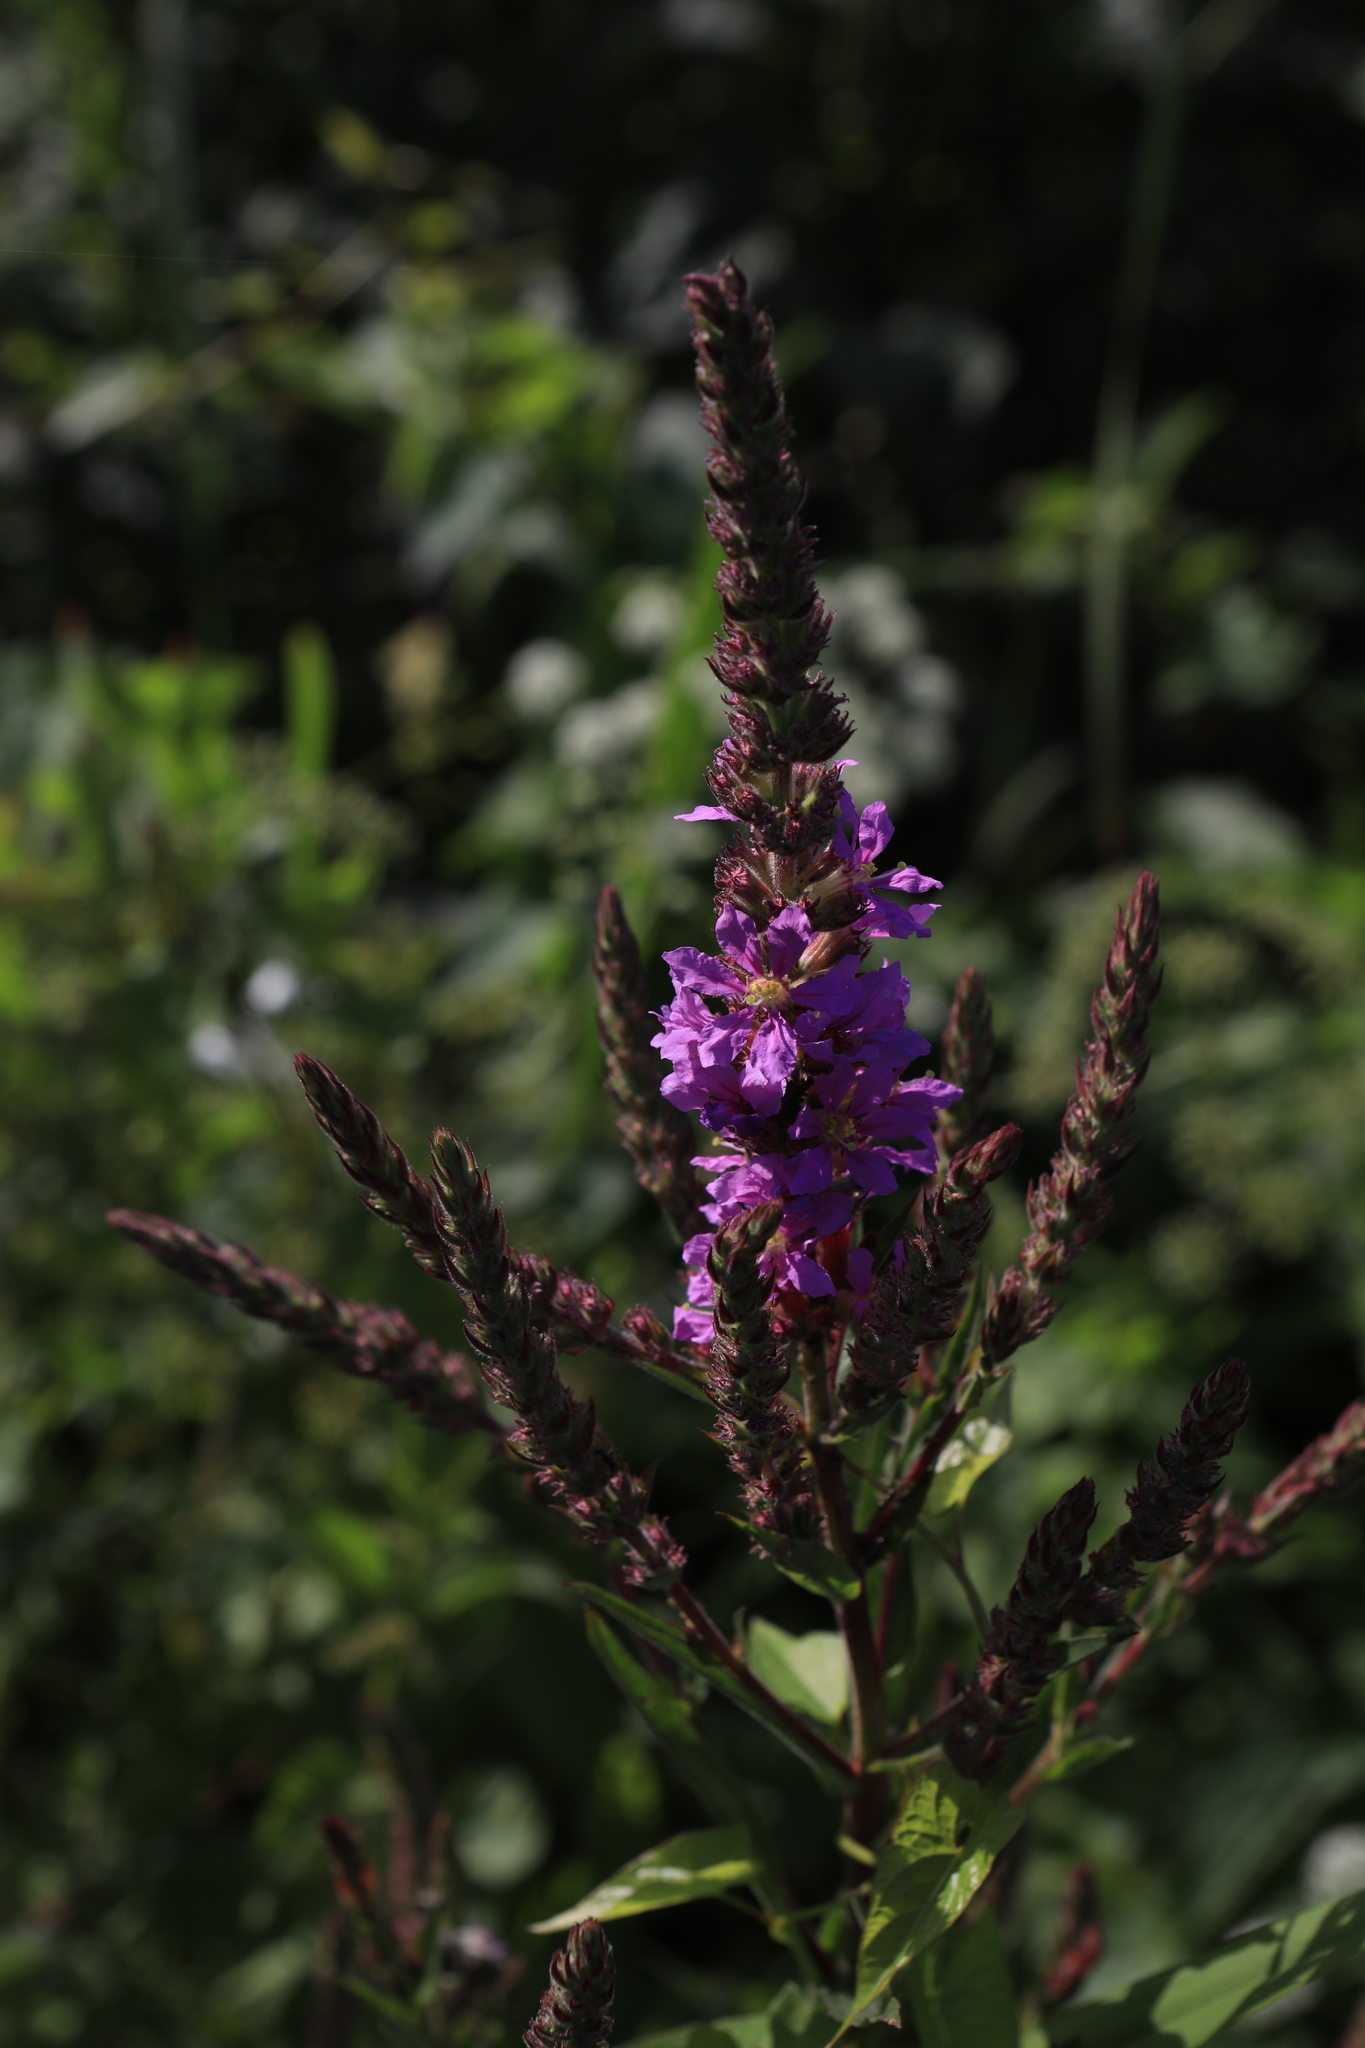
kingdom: Plantae
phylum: Tracheophyta
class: Magnoliopsida
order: Myrtales
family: Lythraceae
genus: Lythrum
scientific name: Lythrum salicaria
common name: Purple loosestrife
